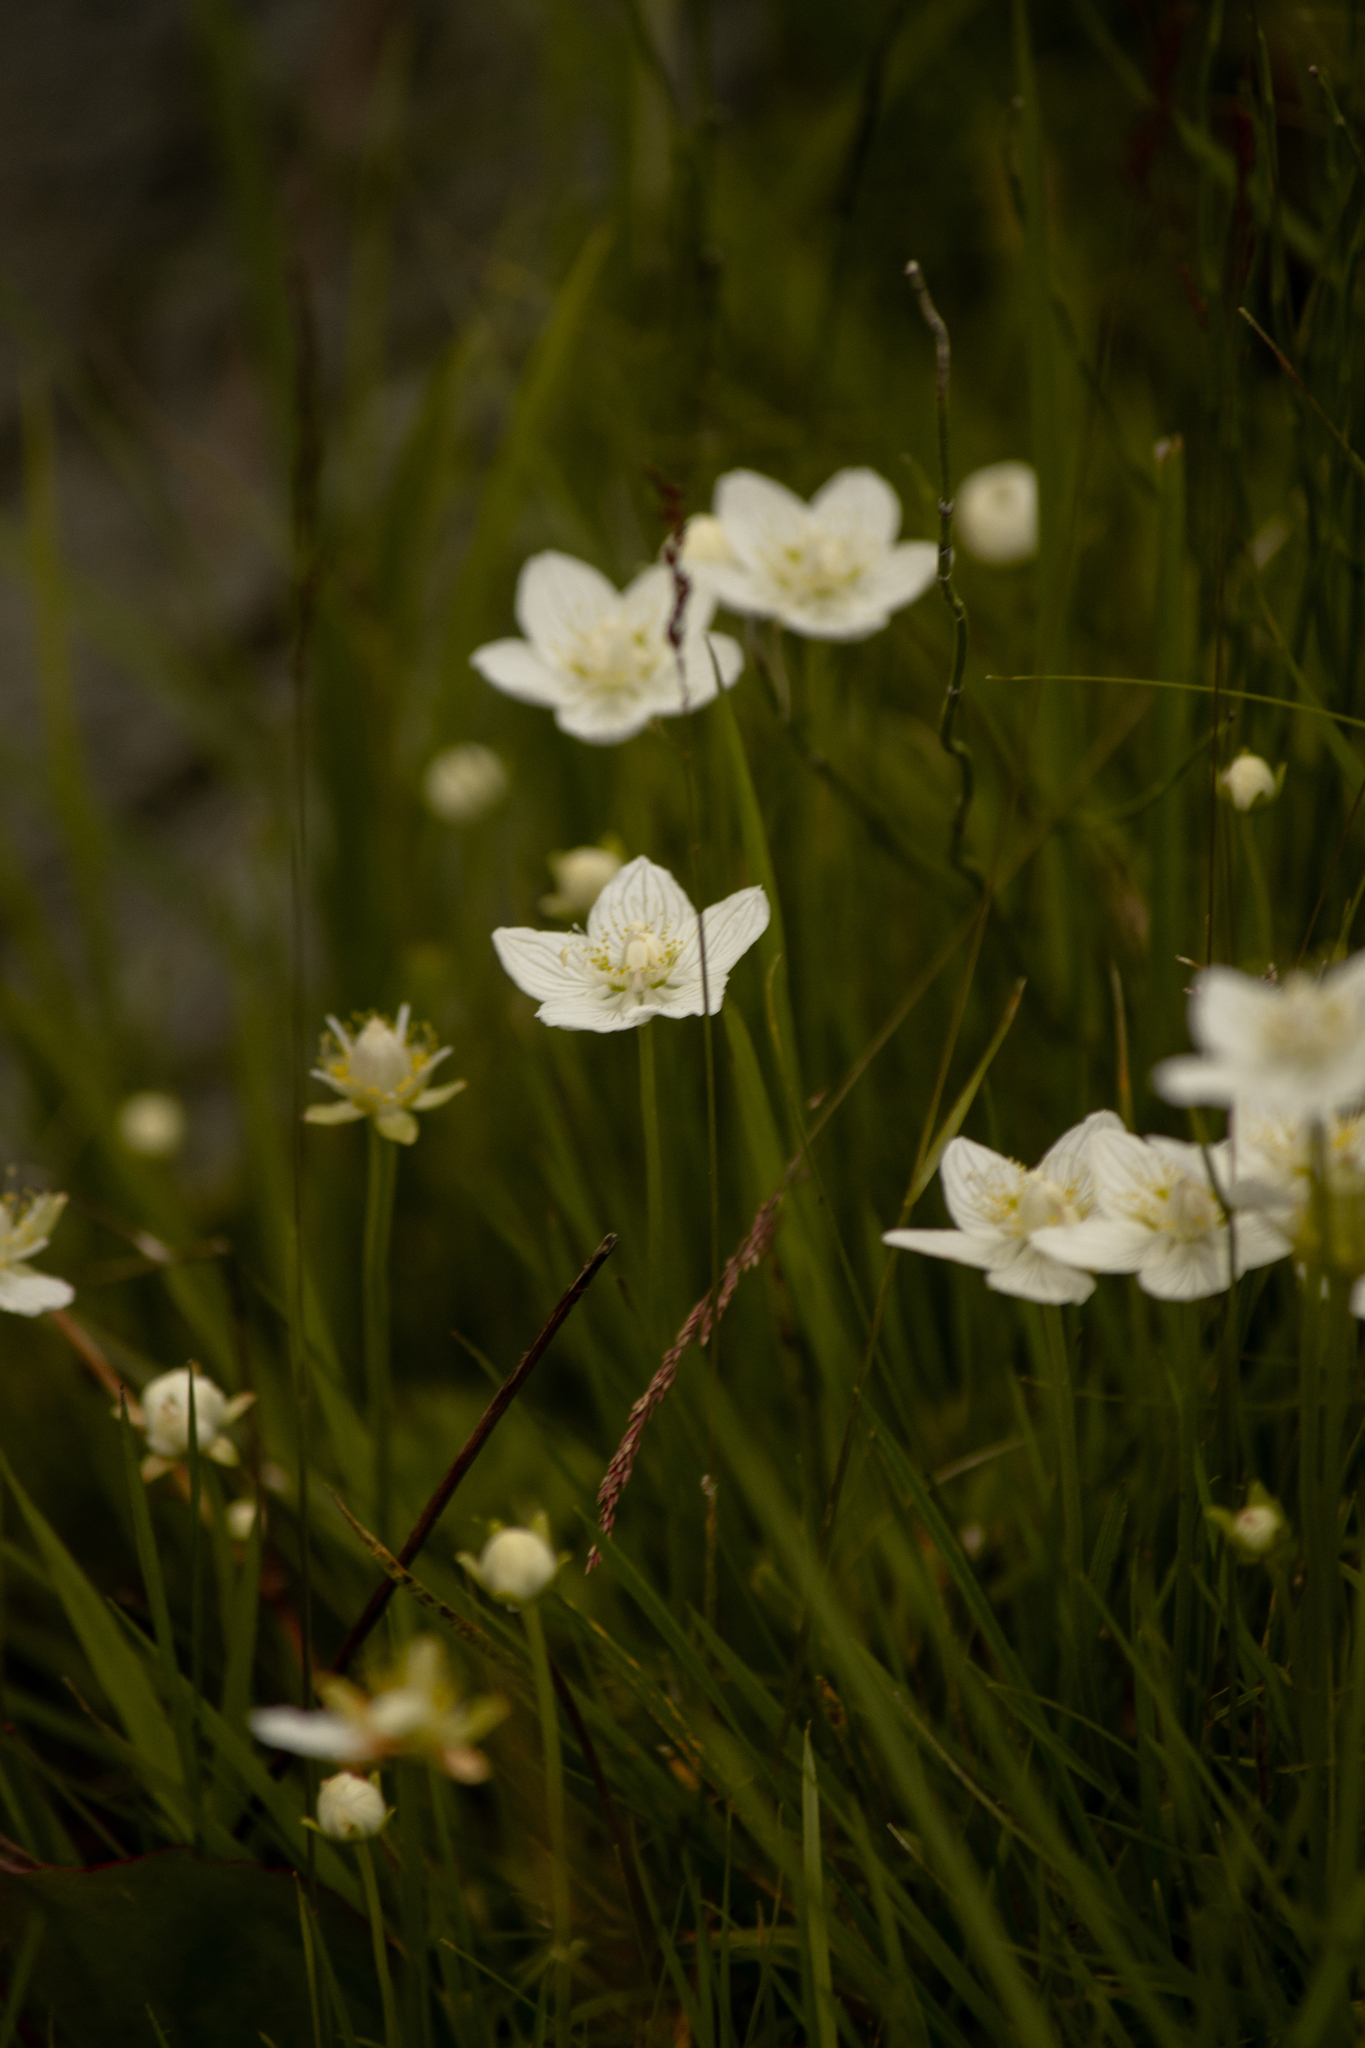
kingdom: Plantae
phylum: Tracheophyta
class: Magnoliopsida
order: Celastrales
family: Parnassiaceae
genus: Parnassia
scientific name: Parnassia palustris
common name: Grass-of-parnassus
